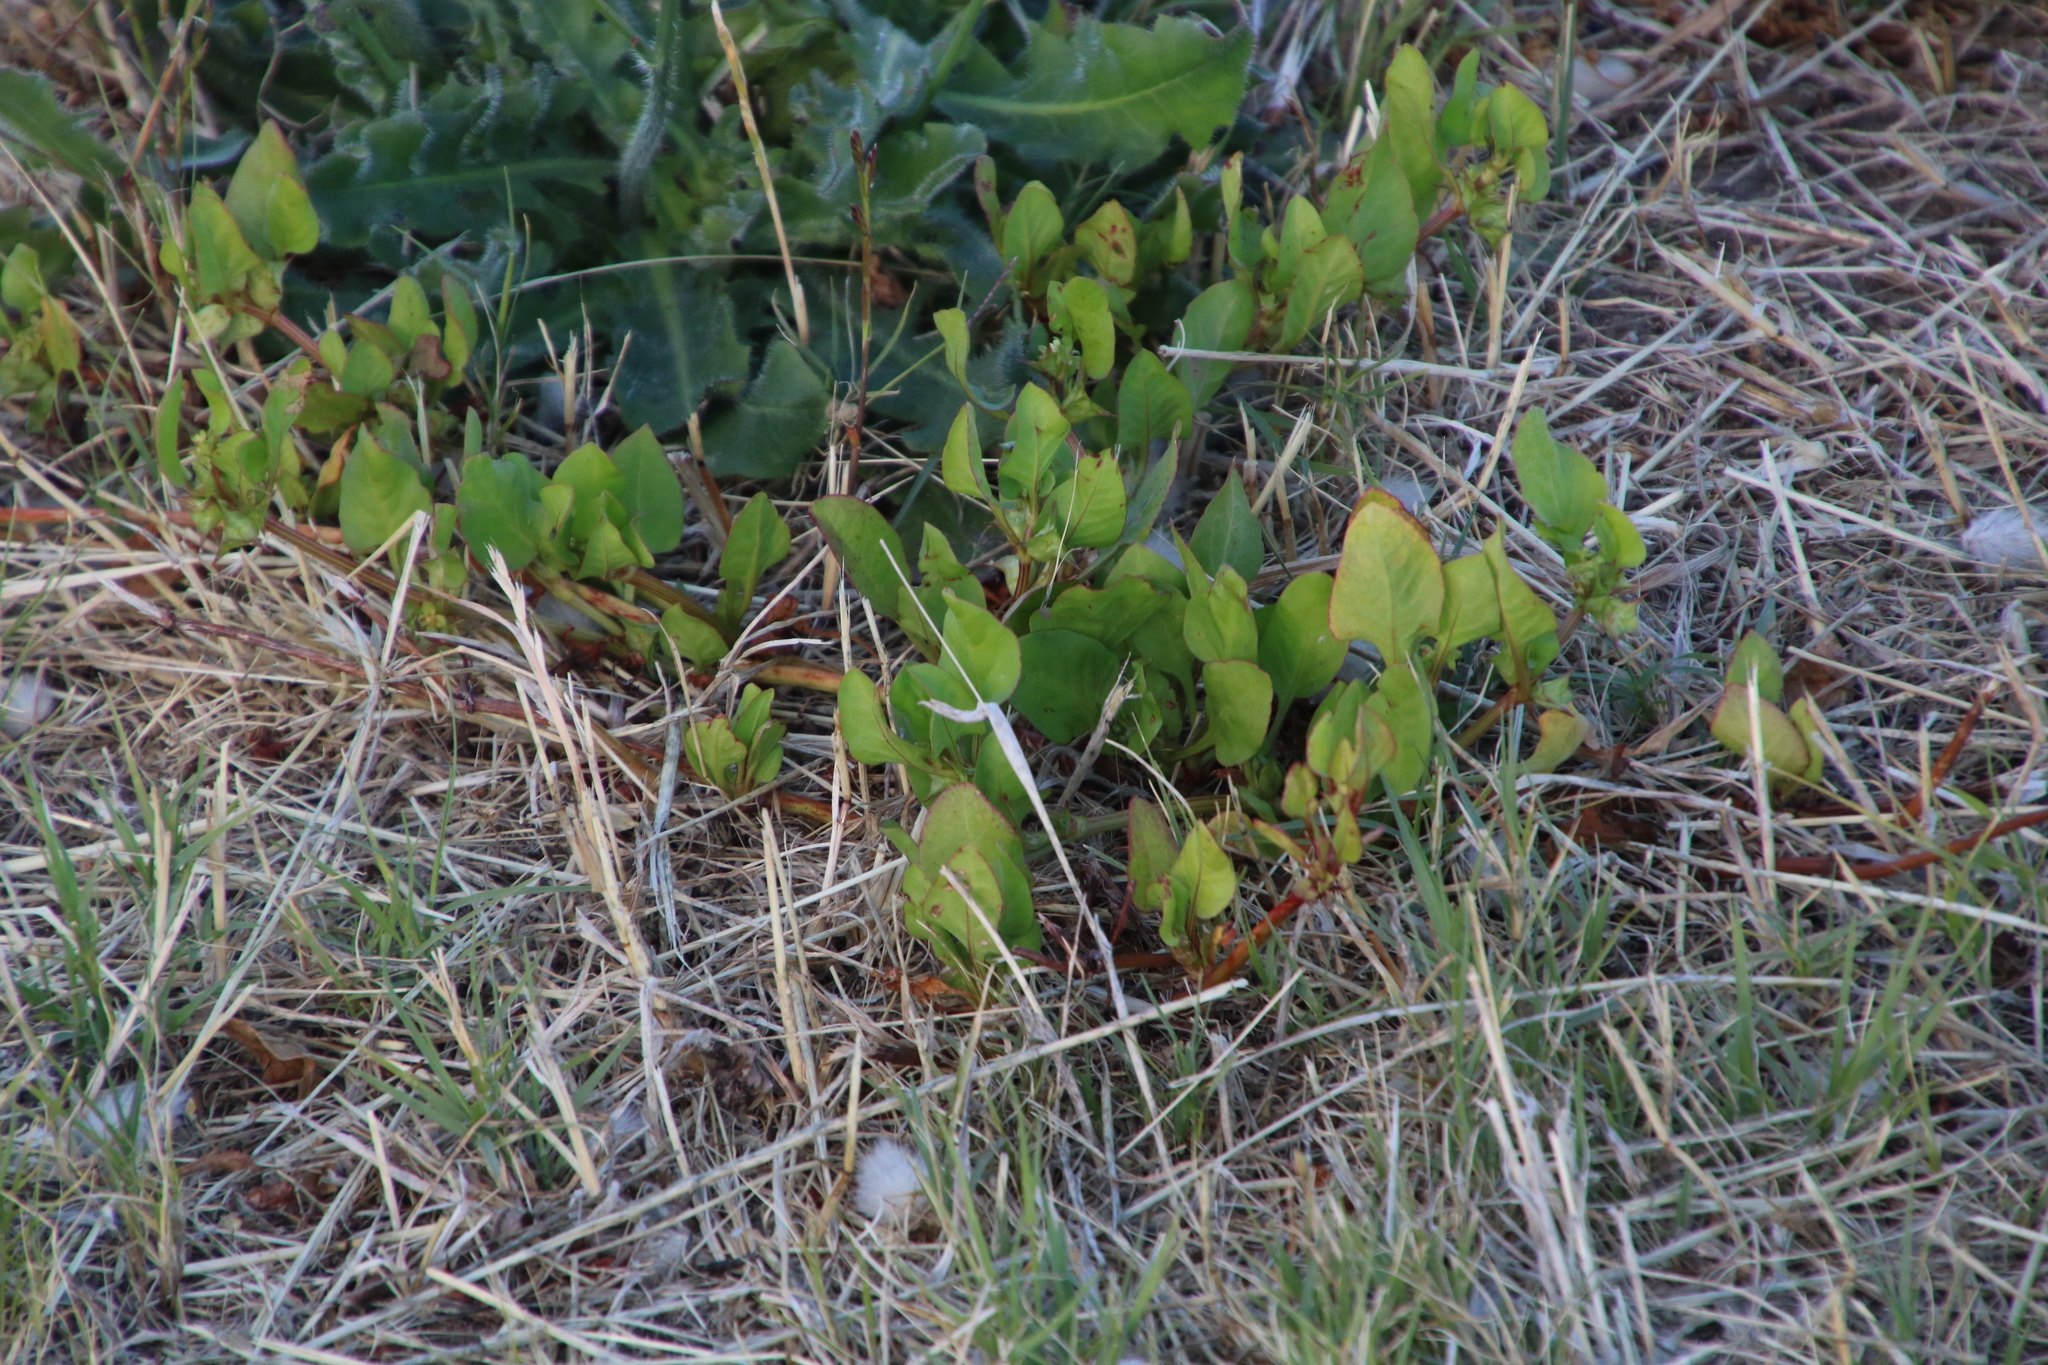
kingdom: Plantae
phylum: Tracheophyta
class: Magnoliopsida
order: Caryophyllales
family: Polygonaceae
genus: Rumex
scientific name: Rumex hypogaeus
